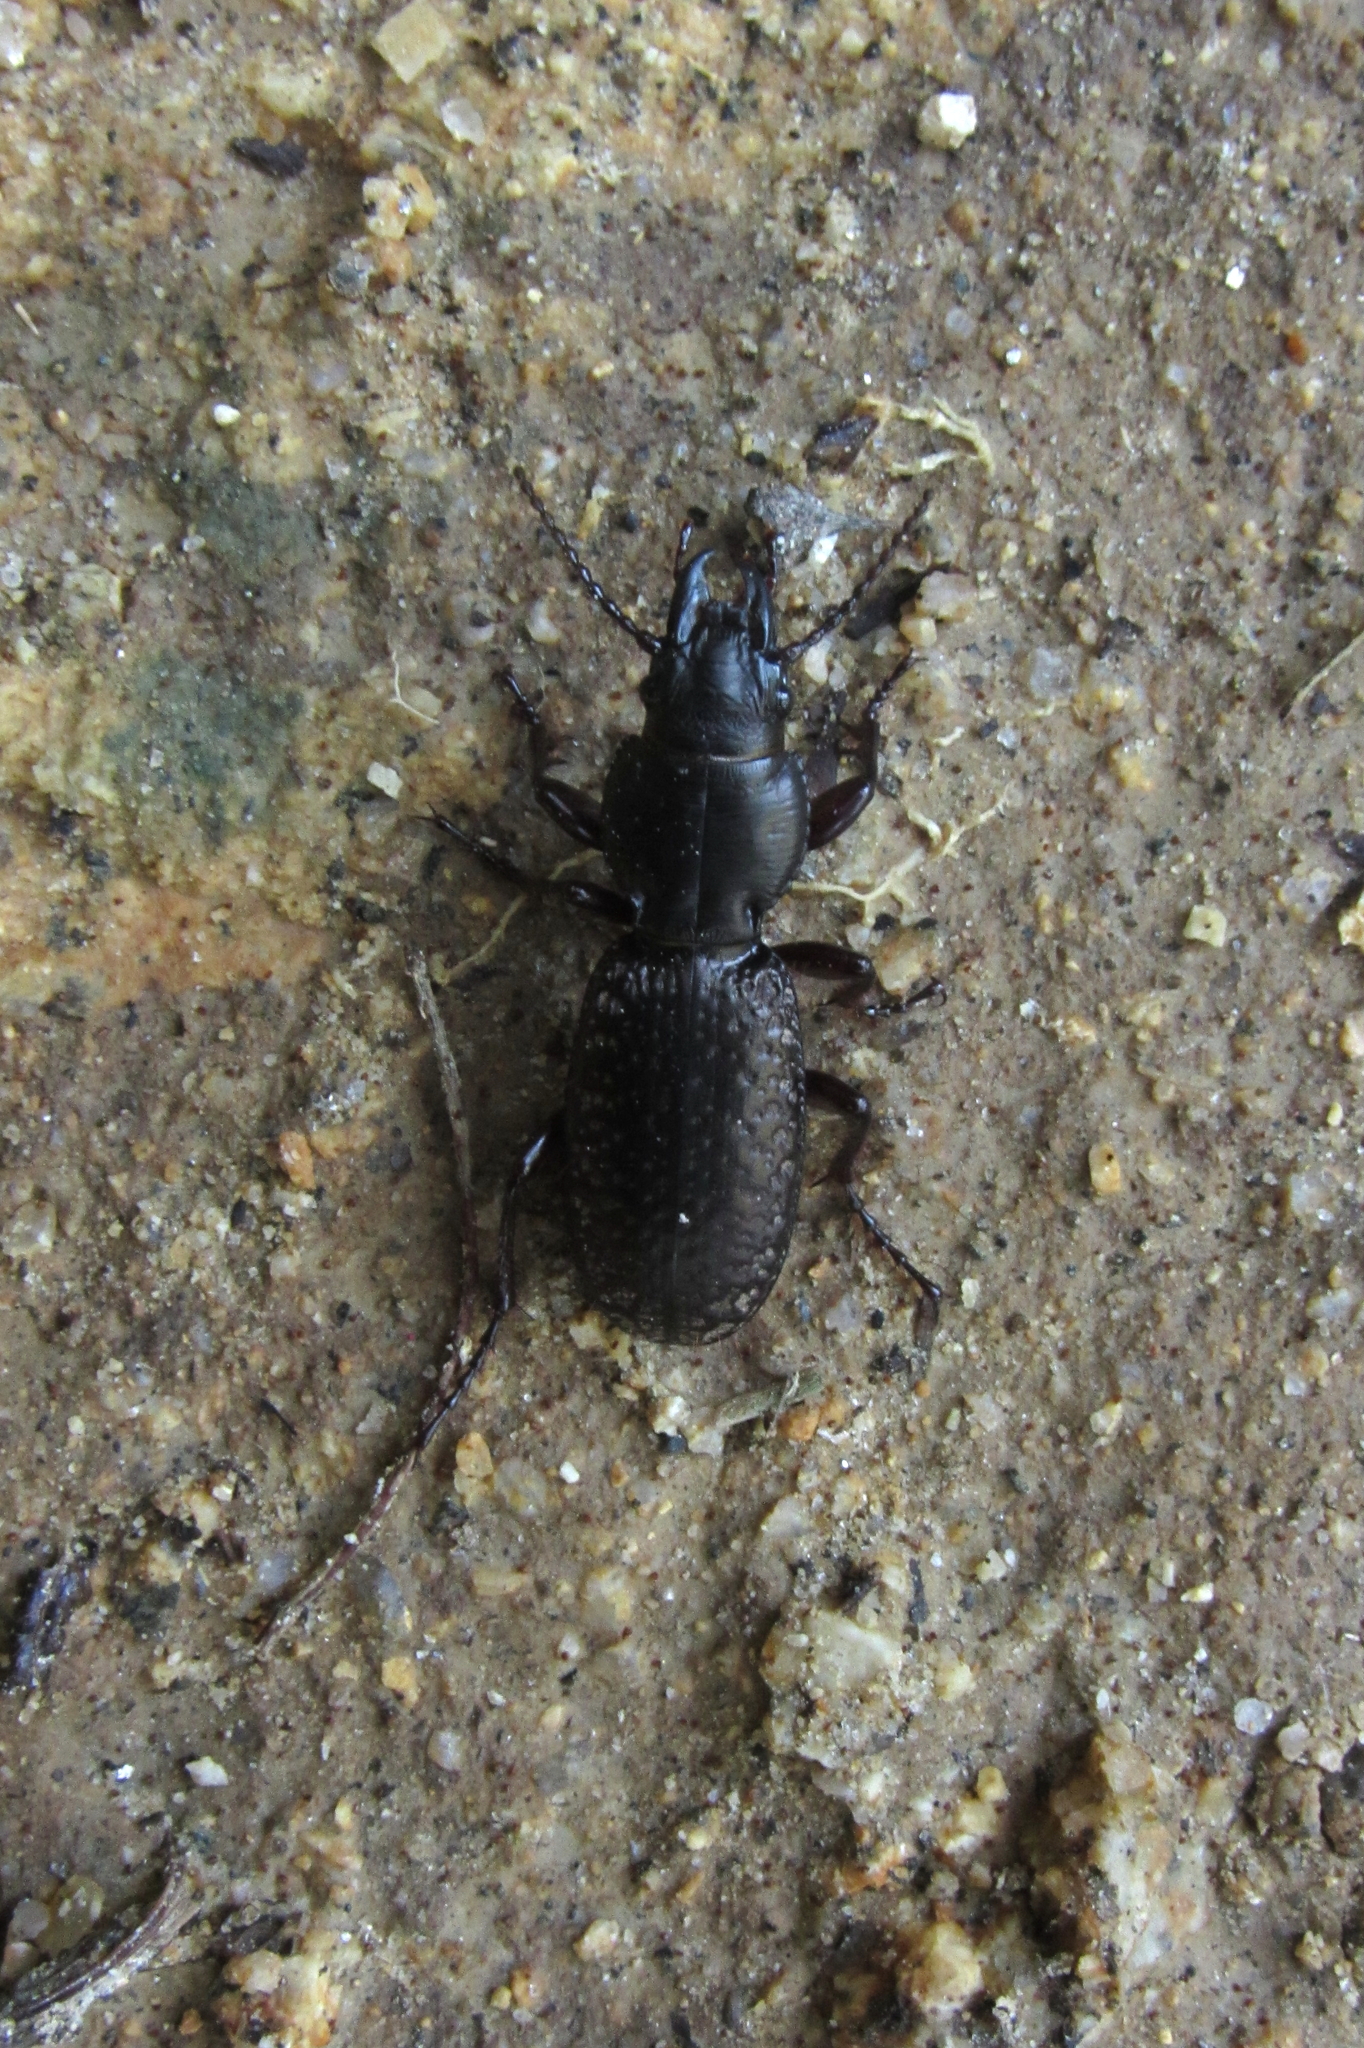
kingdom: Animalia
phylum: Arthropoda
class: Insecta
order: Coleoptera
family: Carabidae
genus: Mecodema
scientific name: Mecodema crenicolle
